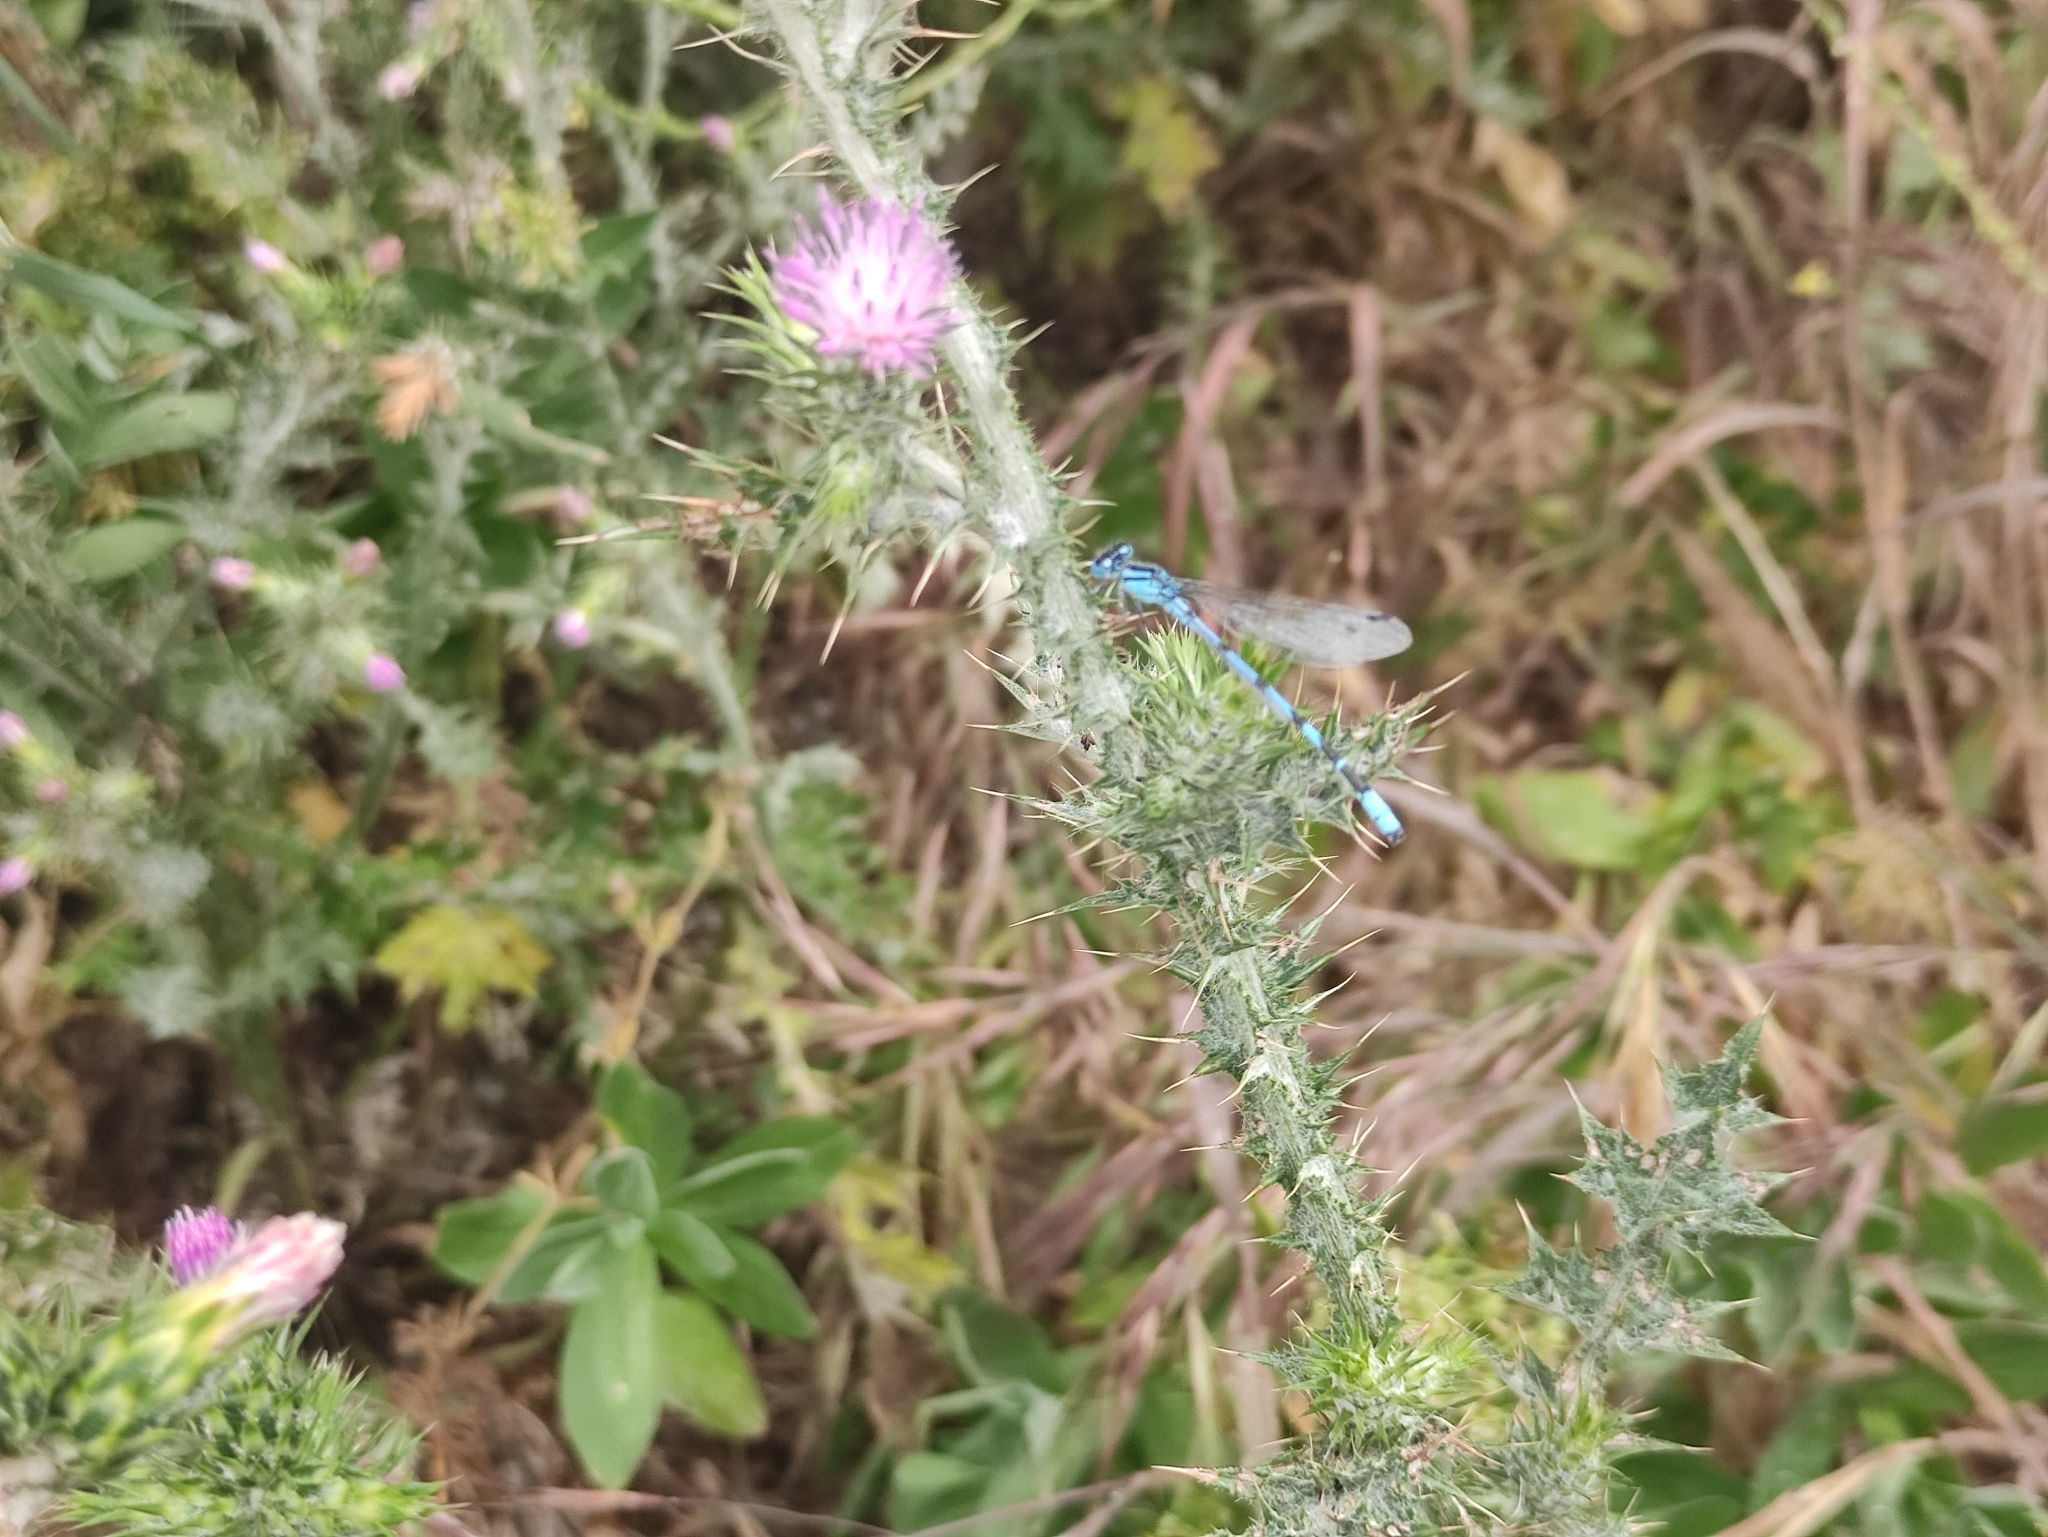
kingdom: Animalia
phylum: Arthropoda
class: Insecta
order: Odonata
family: Coenagrionidae
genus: Enallagma
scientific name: Enallagma cyathigerum
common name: Common blue damselfly
